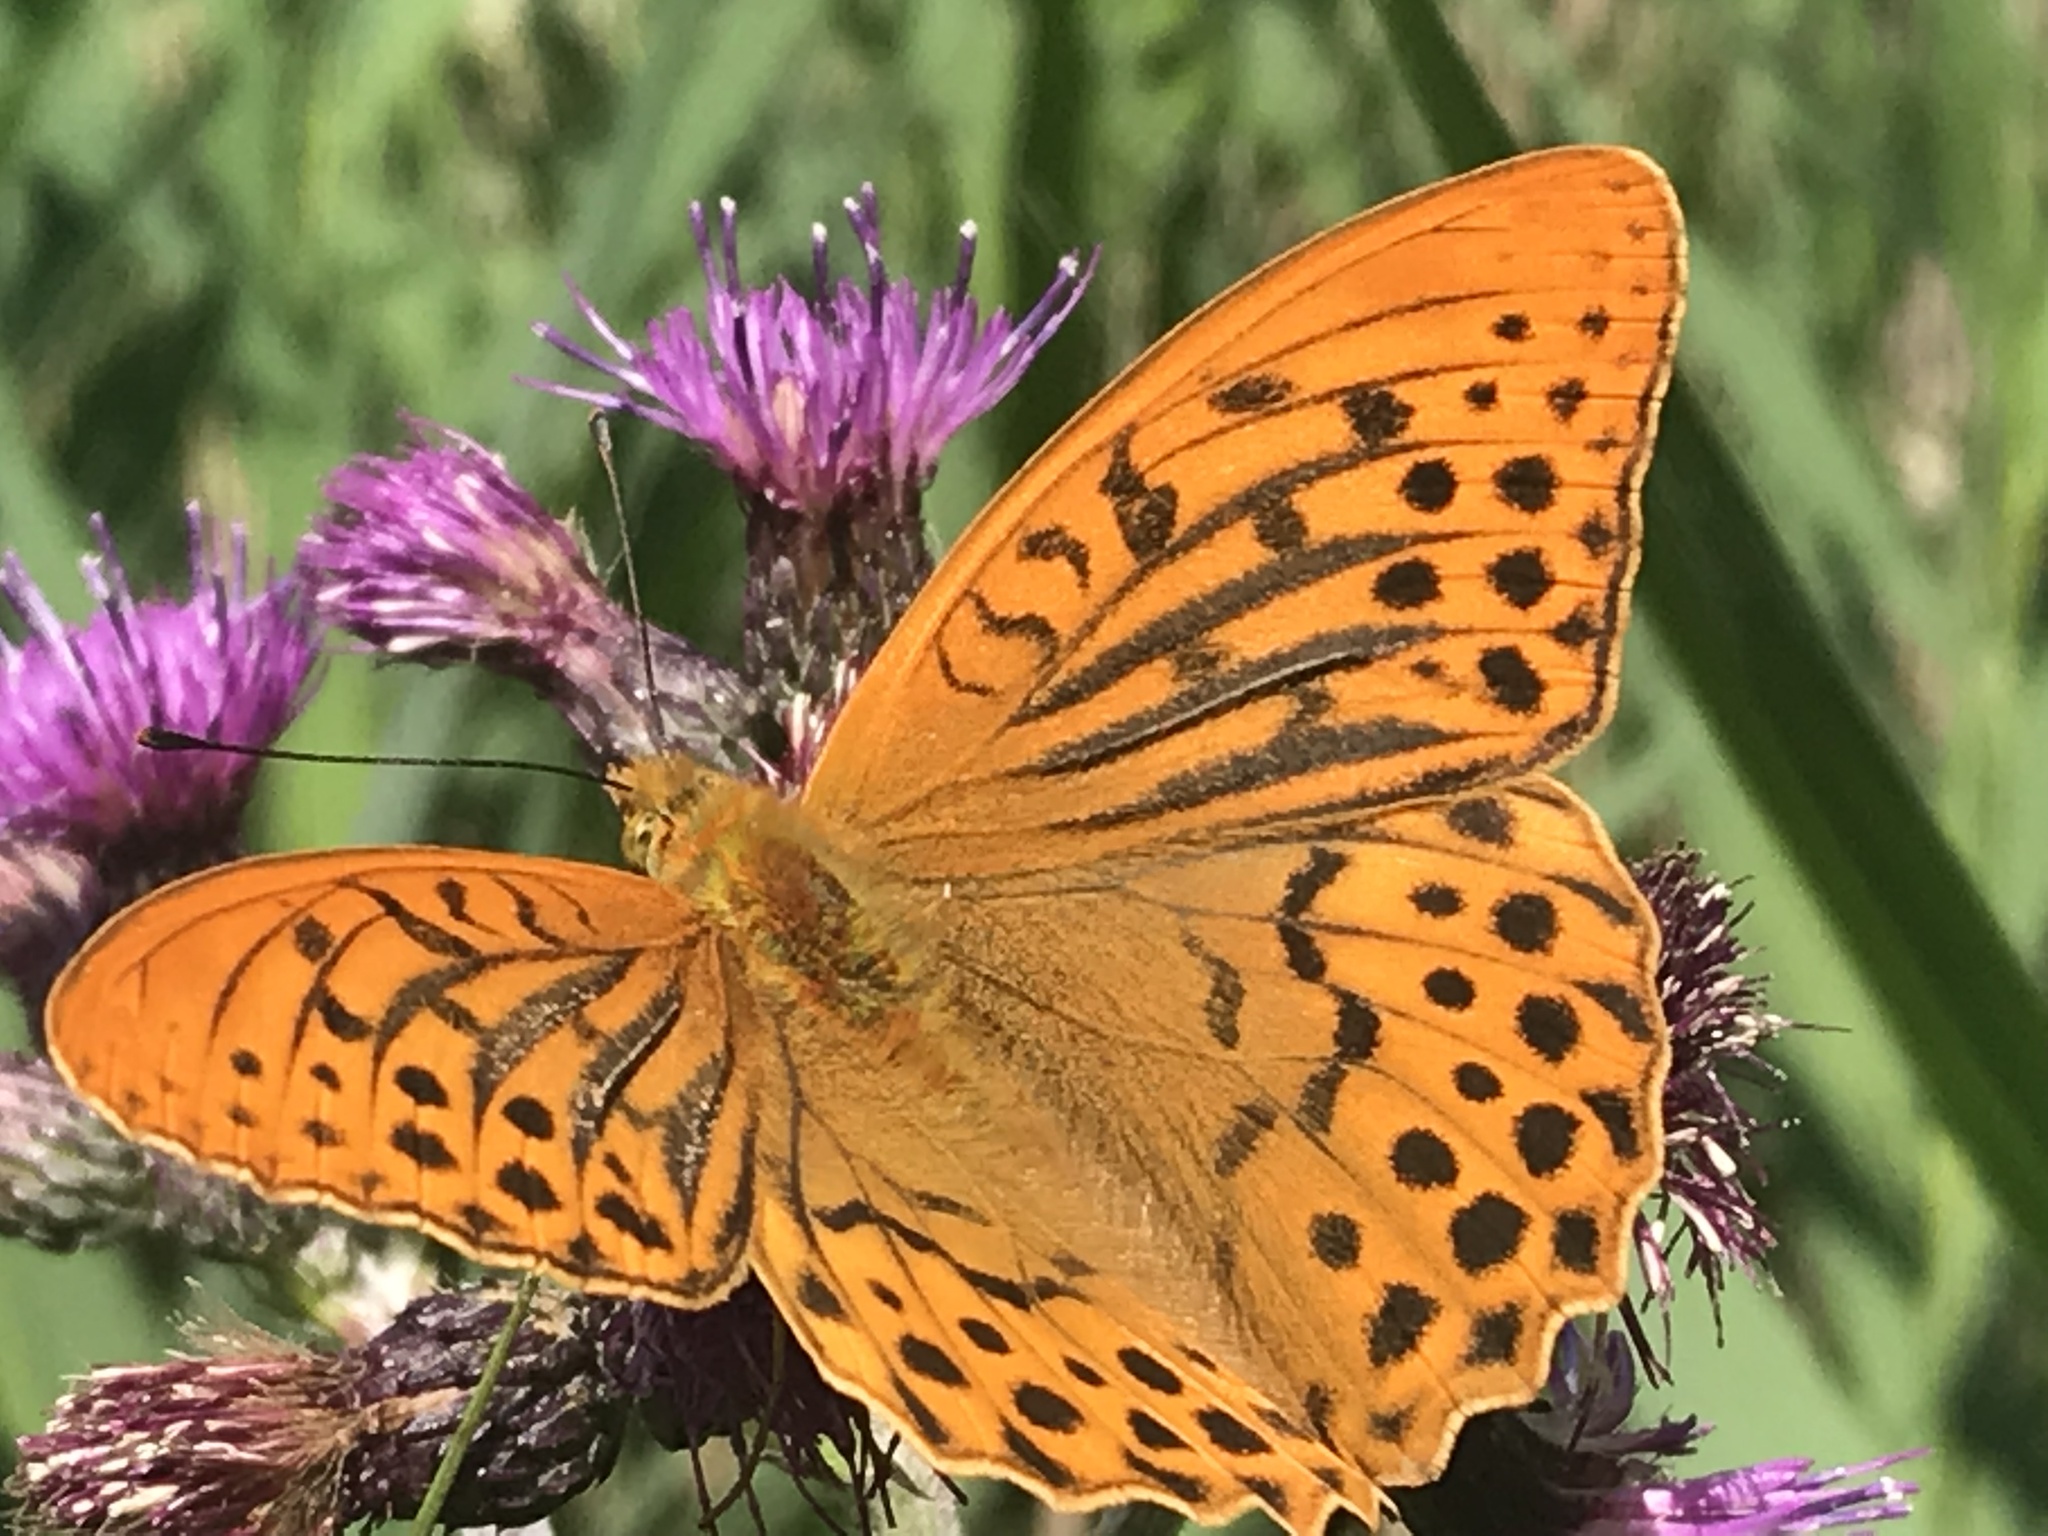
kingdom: Animalia
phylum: Arthropoda
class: Insecta
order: Lepidoptera
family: Nymphalidae
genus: Argynnis
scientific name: Argynnis paphia
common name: Silver-washed fritillary
